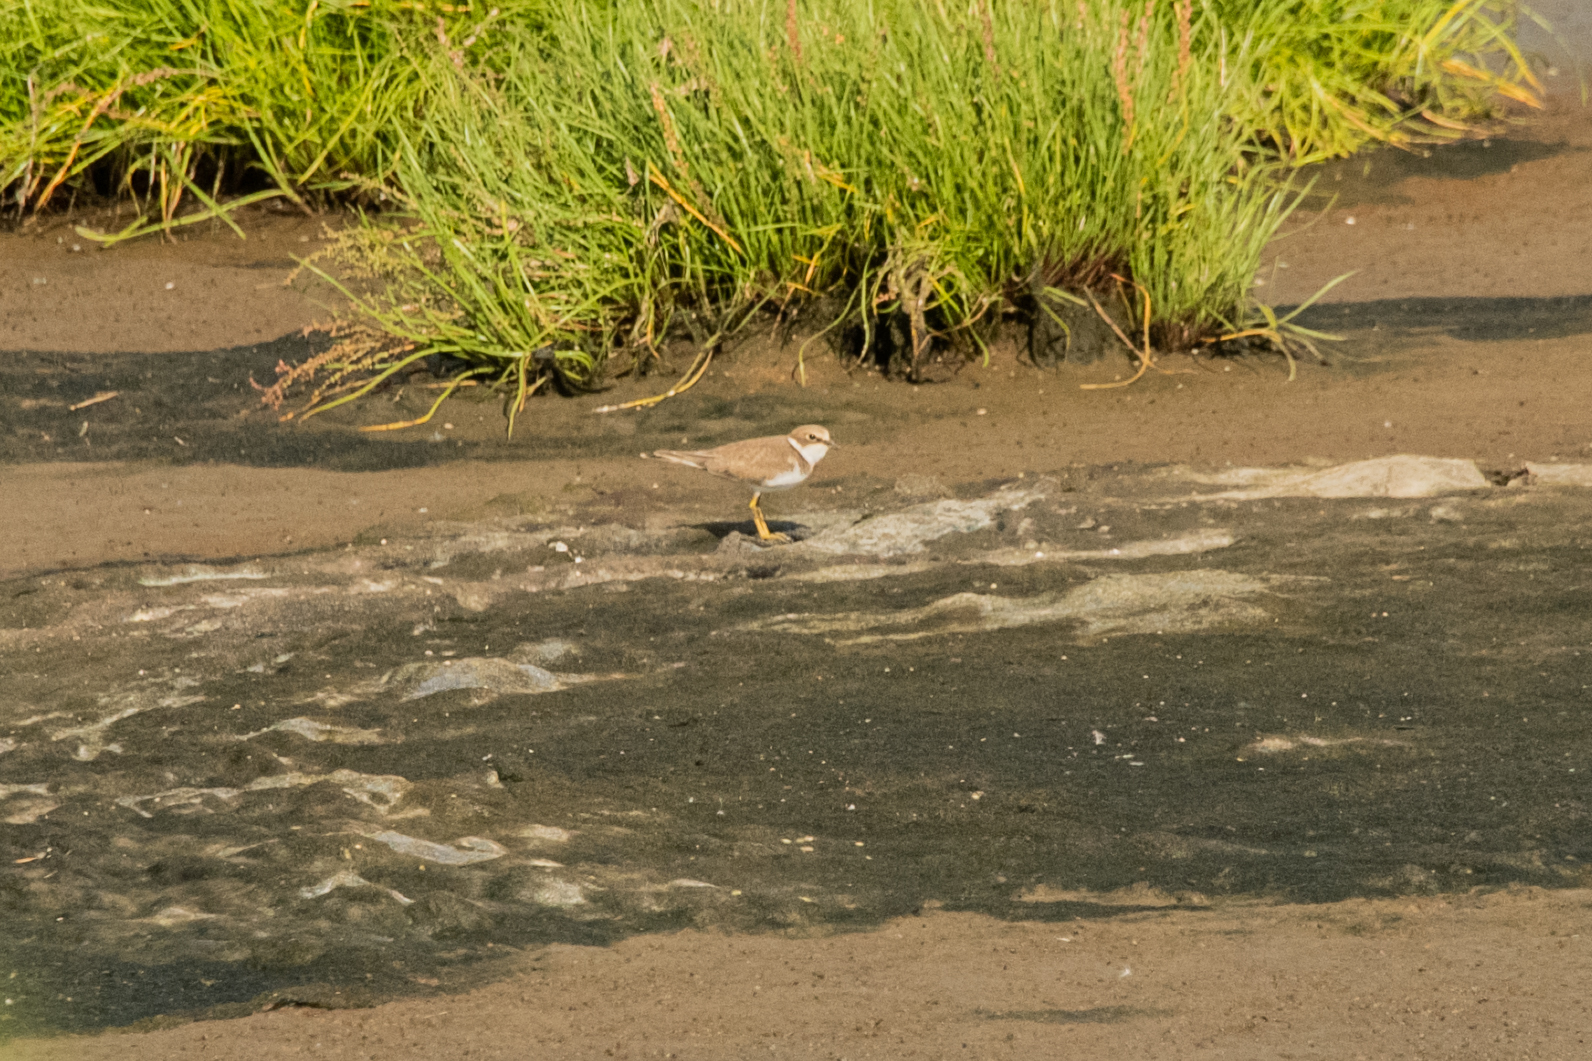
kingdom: Animalia
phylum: Chordata
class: Aves
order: Charadriiformes
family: Charadriidae
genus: Charadrius
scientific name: Charadrius dubius
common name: Little ringed plover
